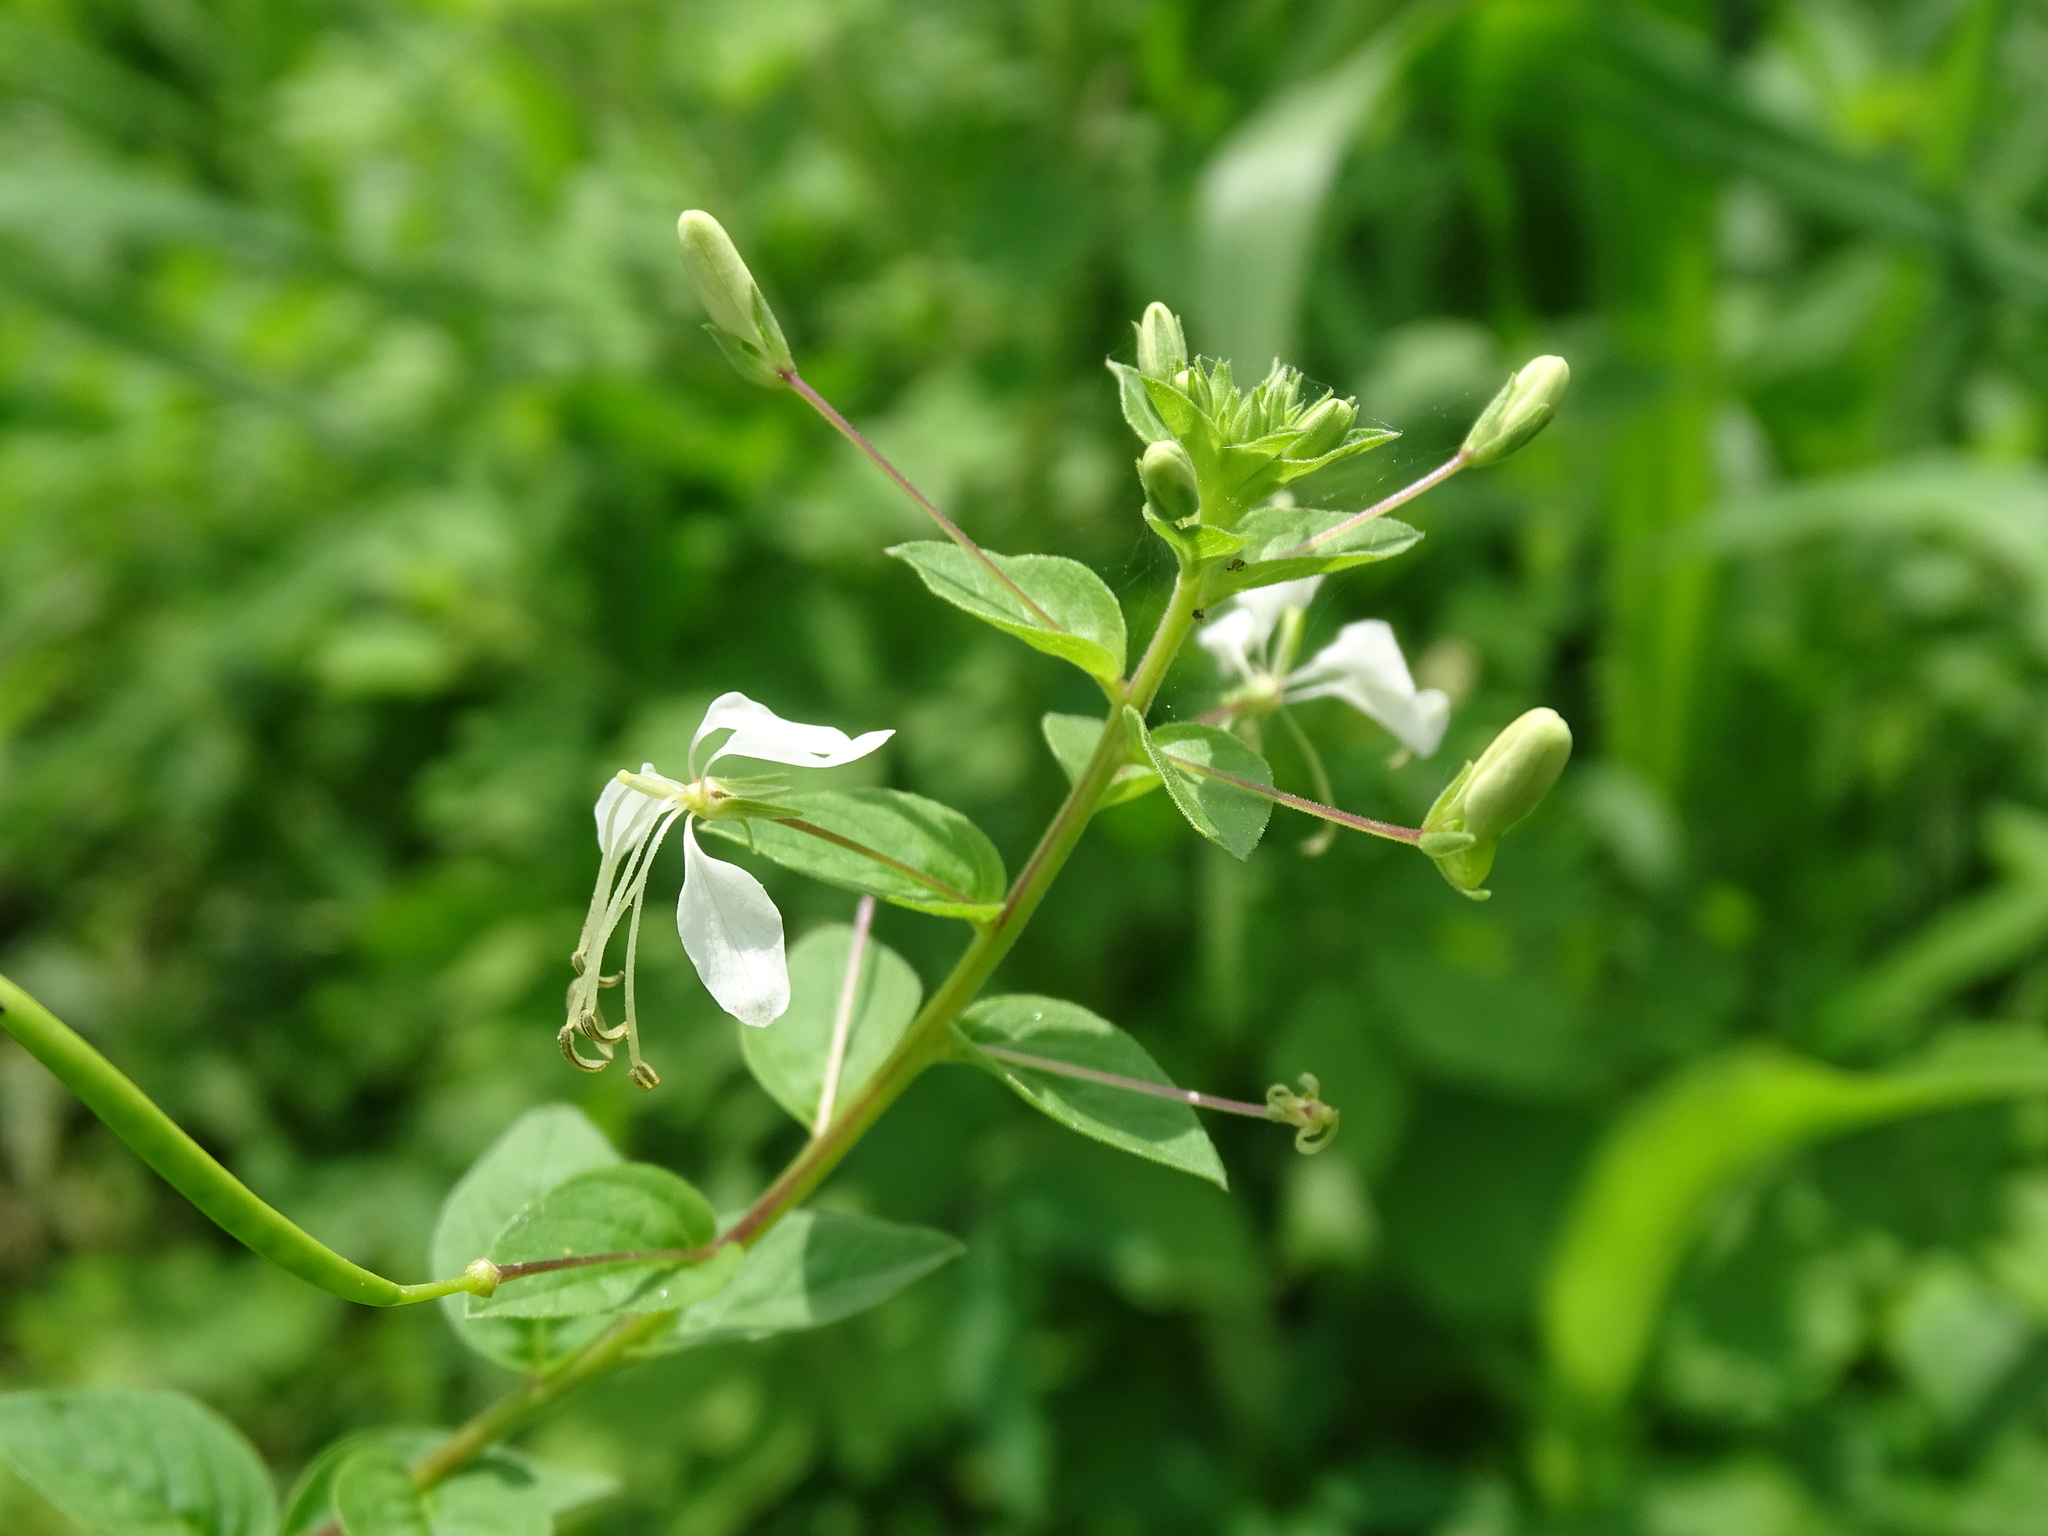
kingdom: Plantae
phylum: Tracheophyta
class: Magnoliopsida
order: Brassicales
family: Cleomaceae
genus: Tarenaya
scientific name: Tarenaya aculeata
